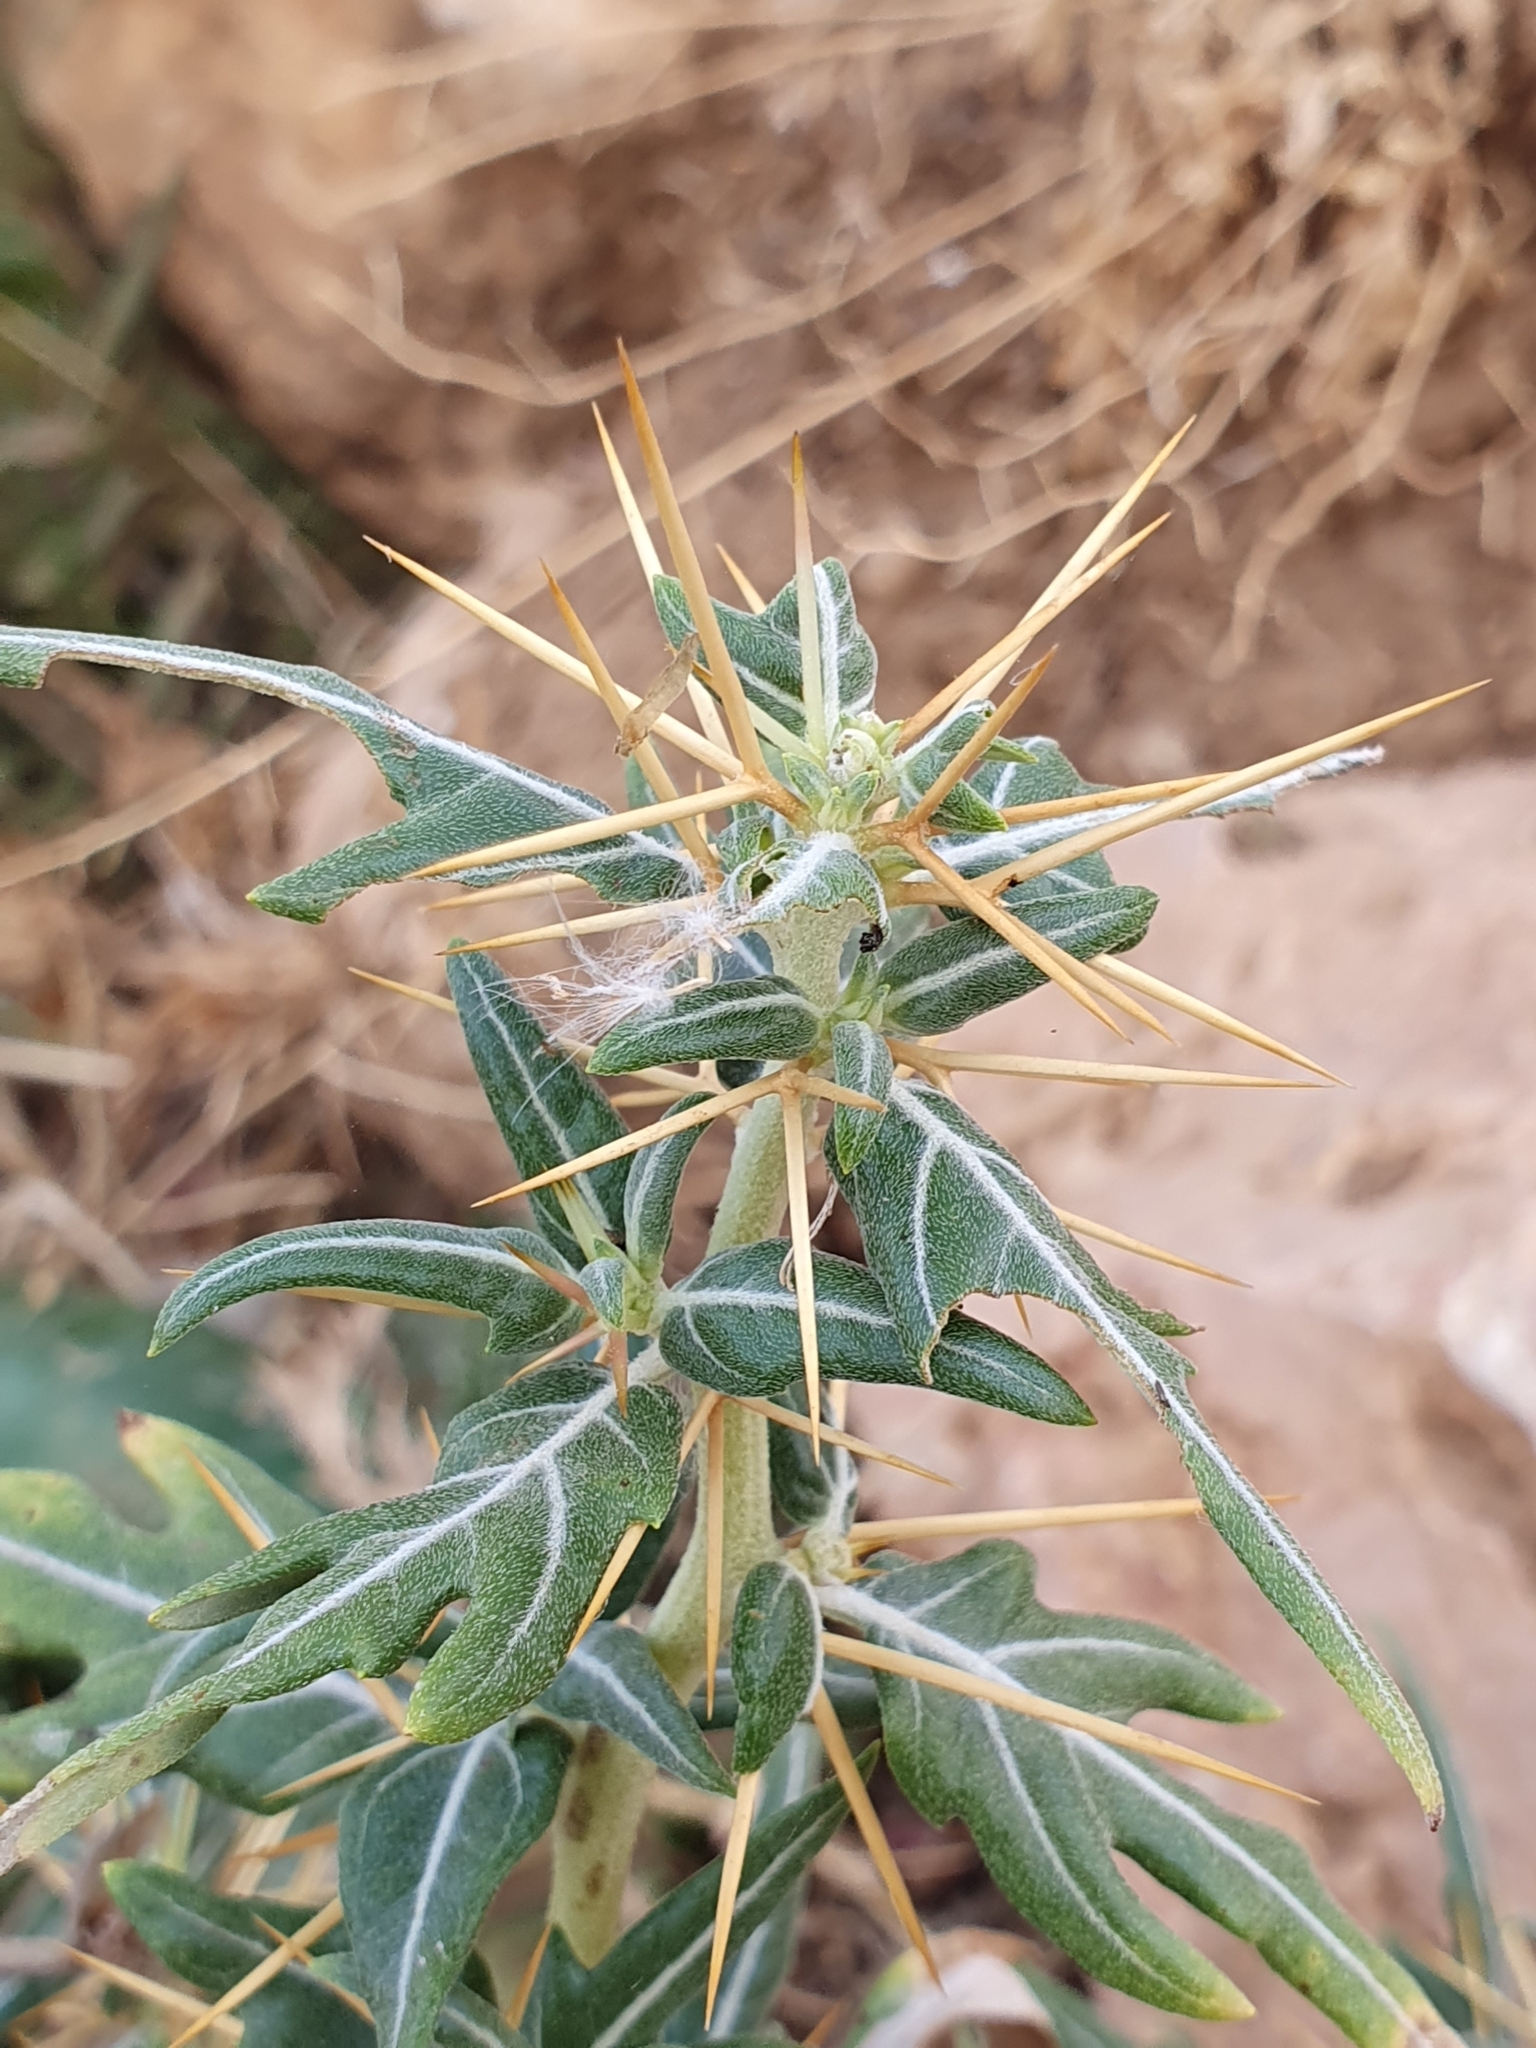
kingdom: Plantae
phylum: Tracheophyta
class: Magnoliopsida
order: Asterales
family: Asteraceae
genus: Xanthium
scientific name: Xanthium spinosum
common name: Spiny cocklebur
